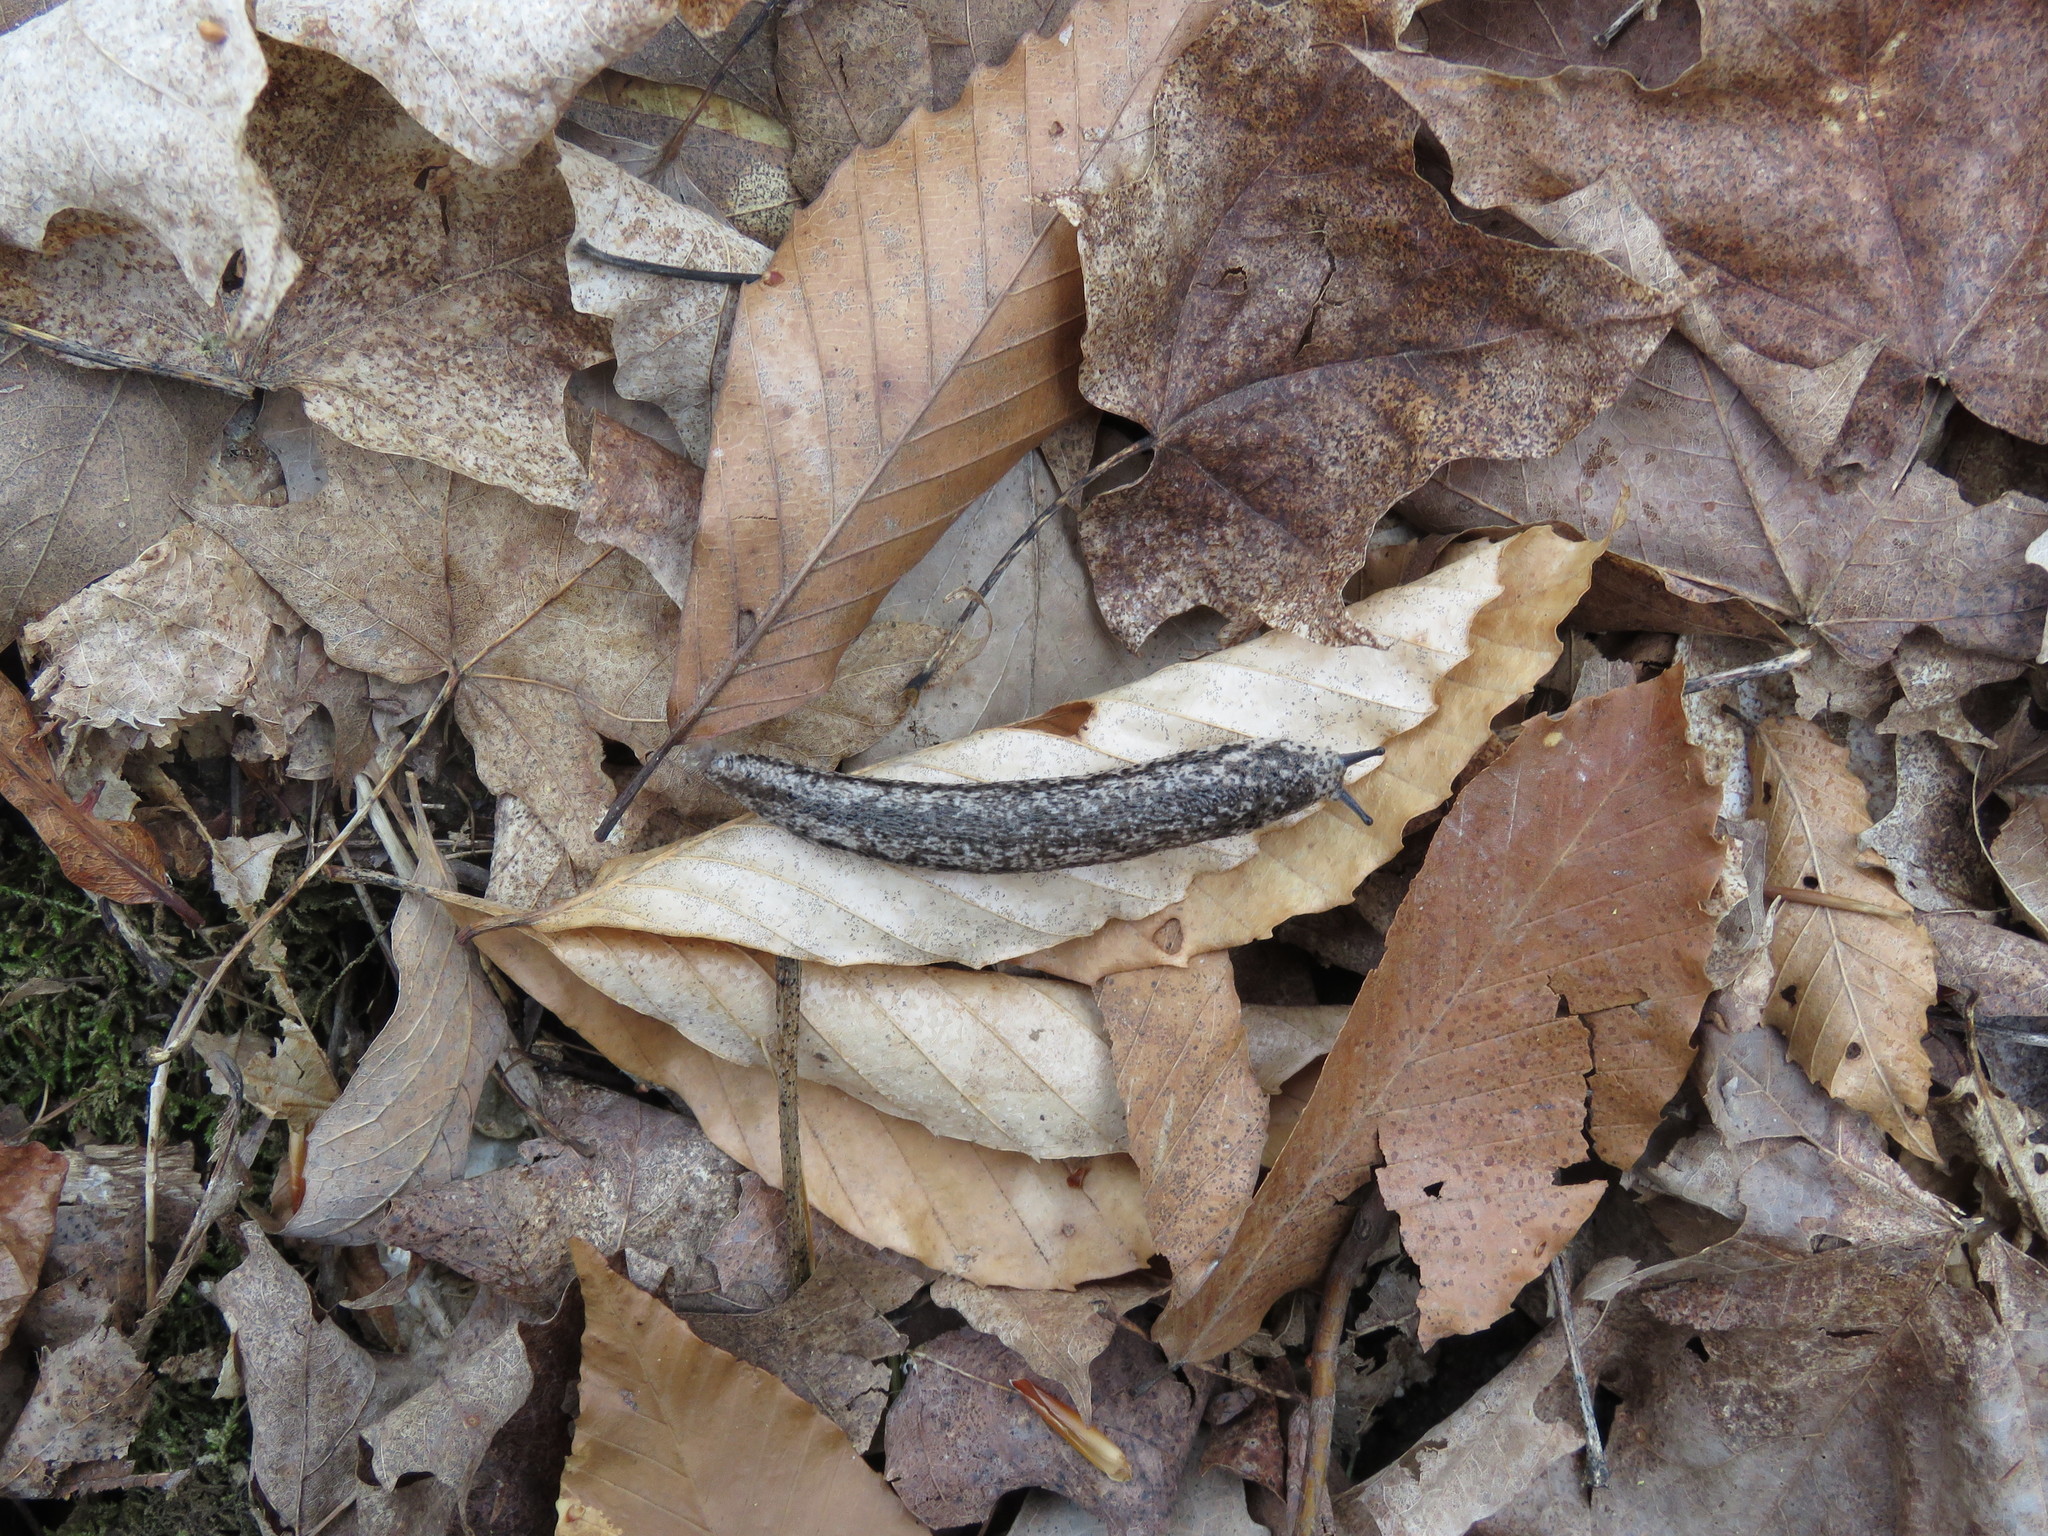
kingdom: Animalia
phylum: Mollusca
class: Gastropoda
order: Stylommatophora
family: Philomycidae
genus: Philomycus
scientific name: Philomycus togatus
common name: Toga mantleslug
